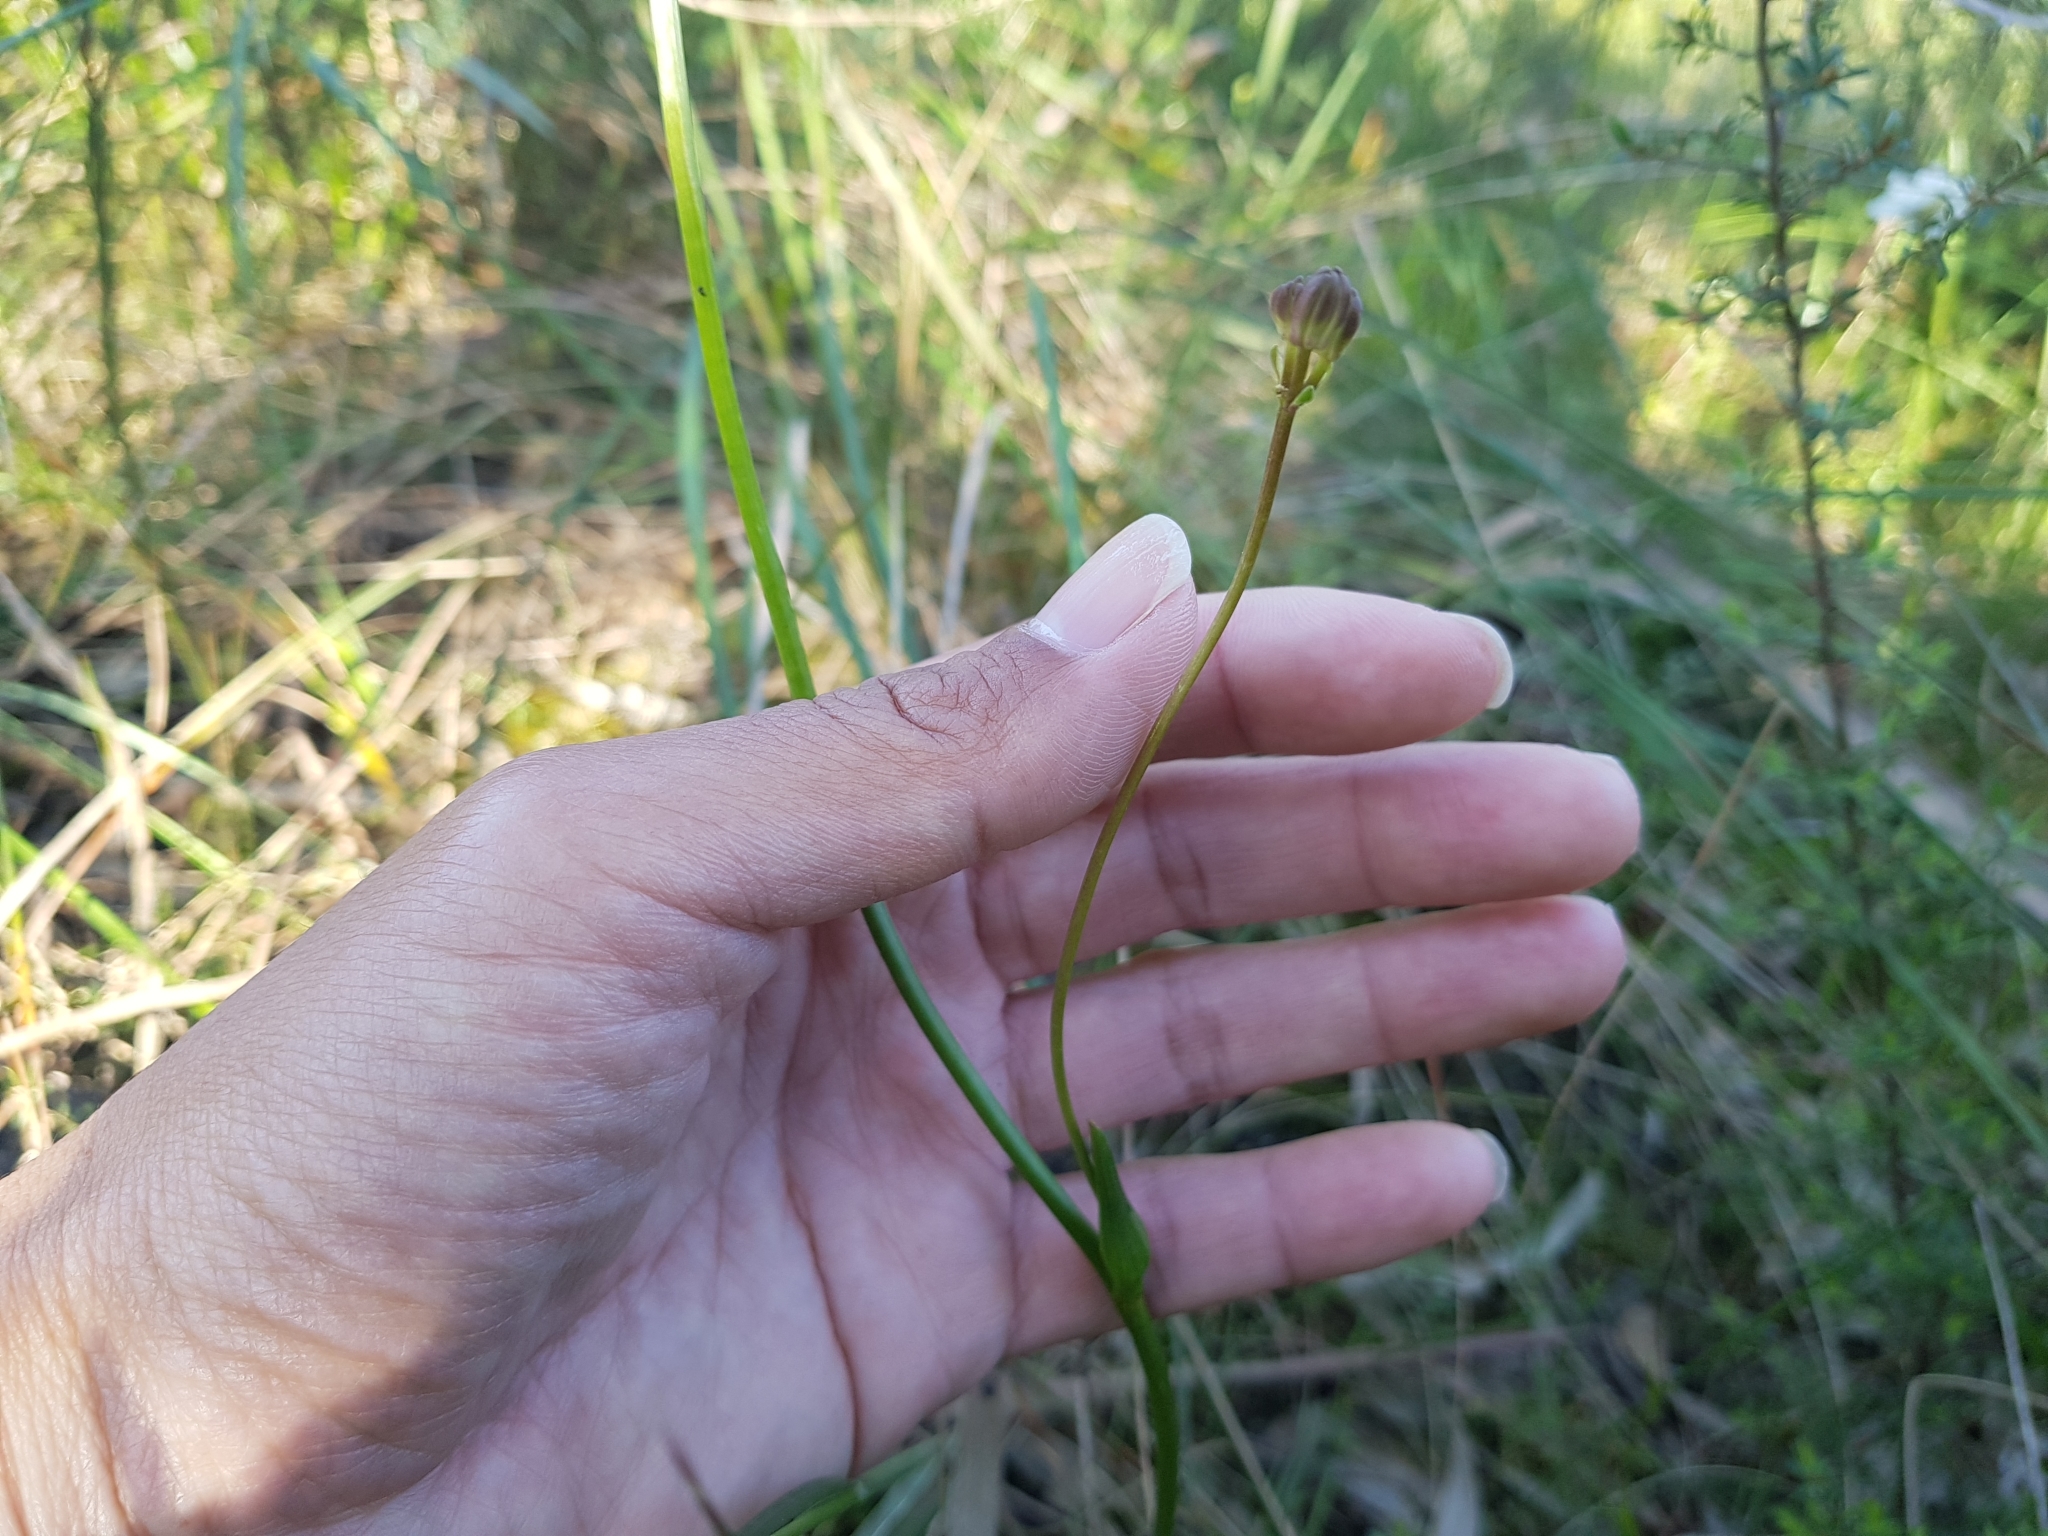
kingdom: Plantae
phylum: Tracheophyta
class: Liliopsida
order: Liliales
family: Colchicaceae
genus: Burchardia
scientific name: Burchardia umbellata
